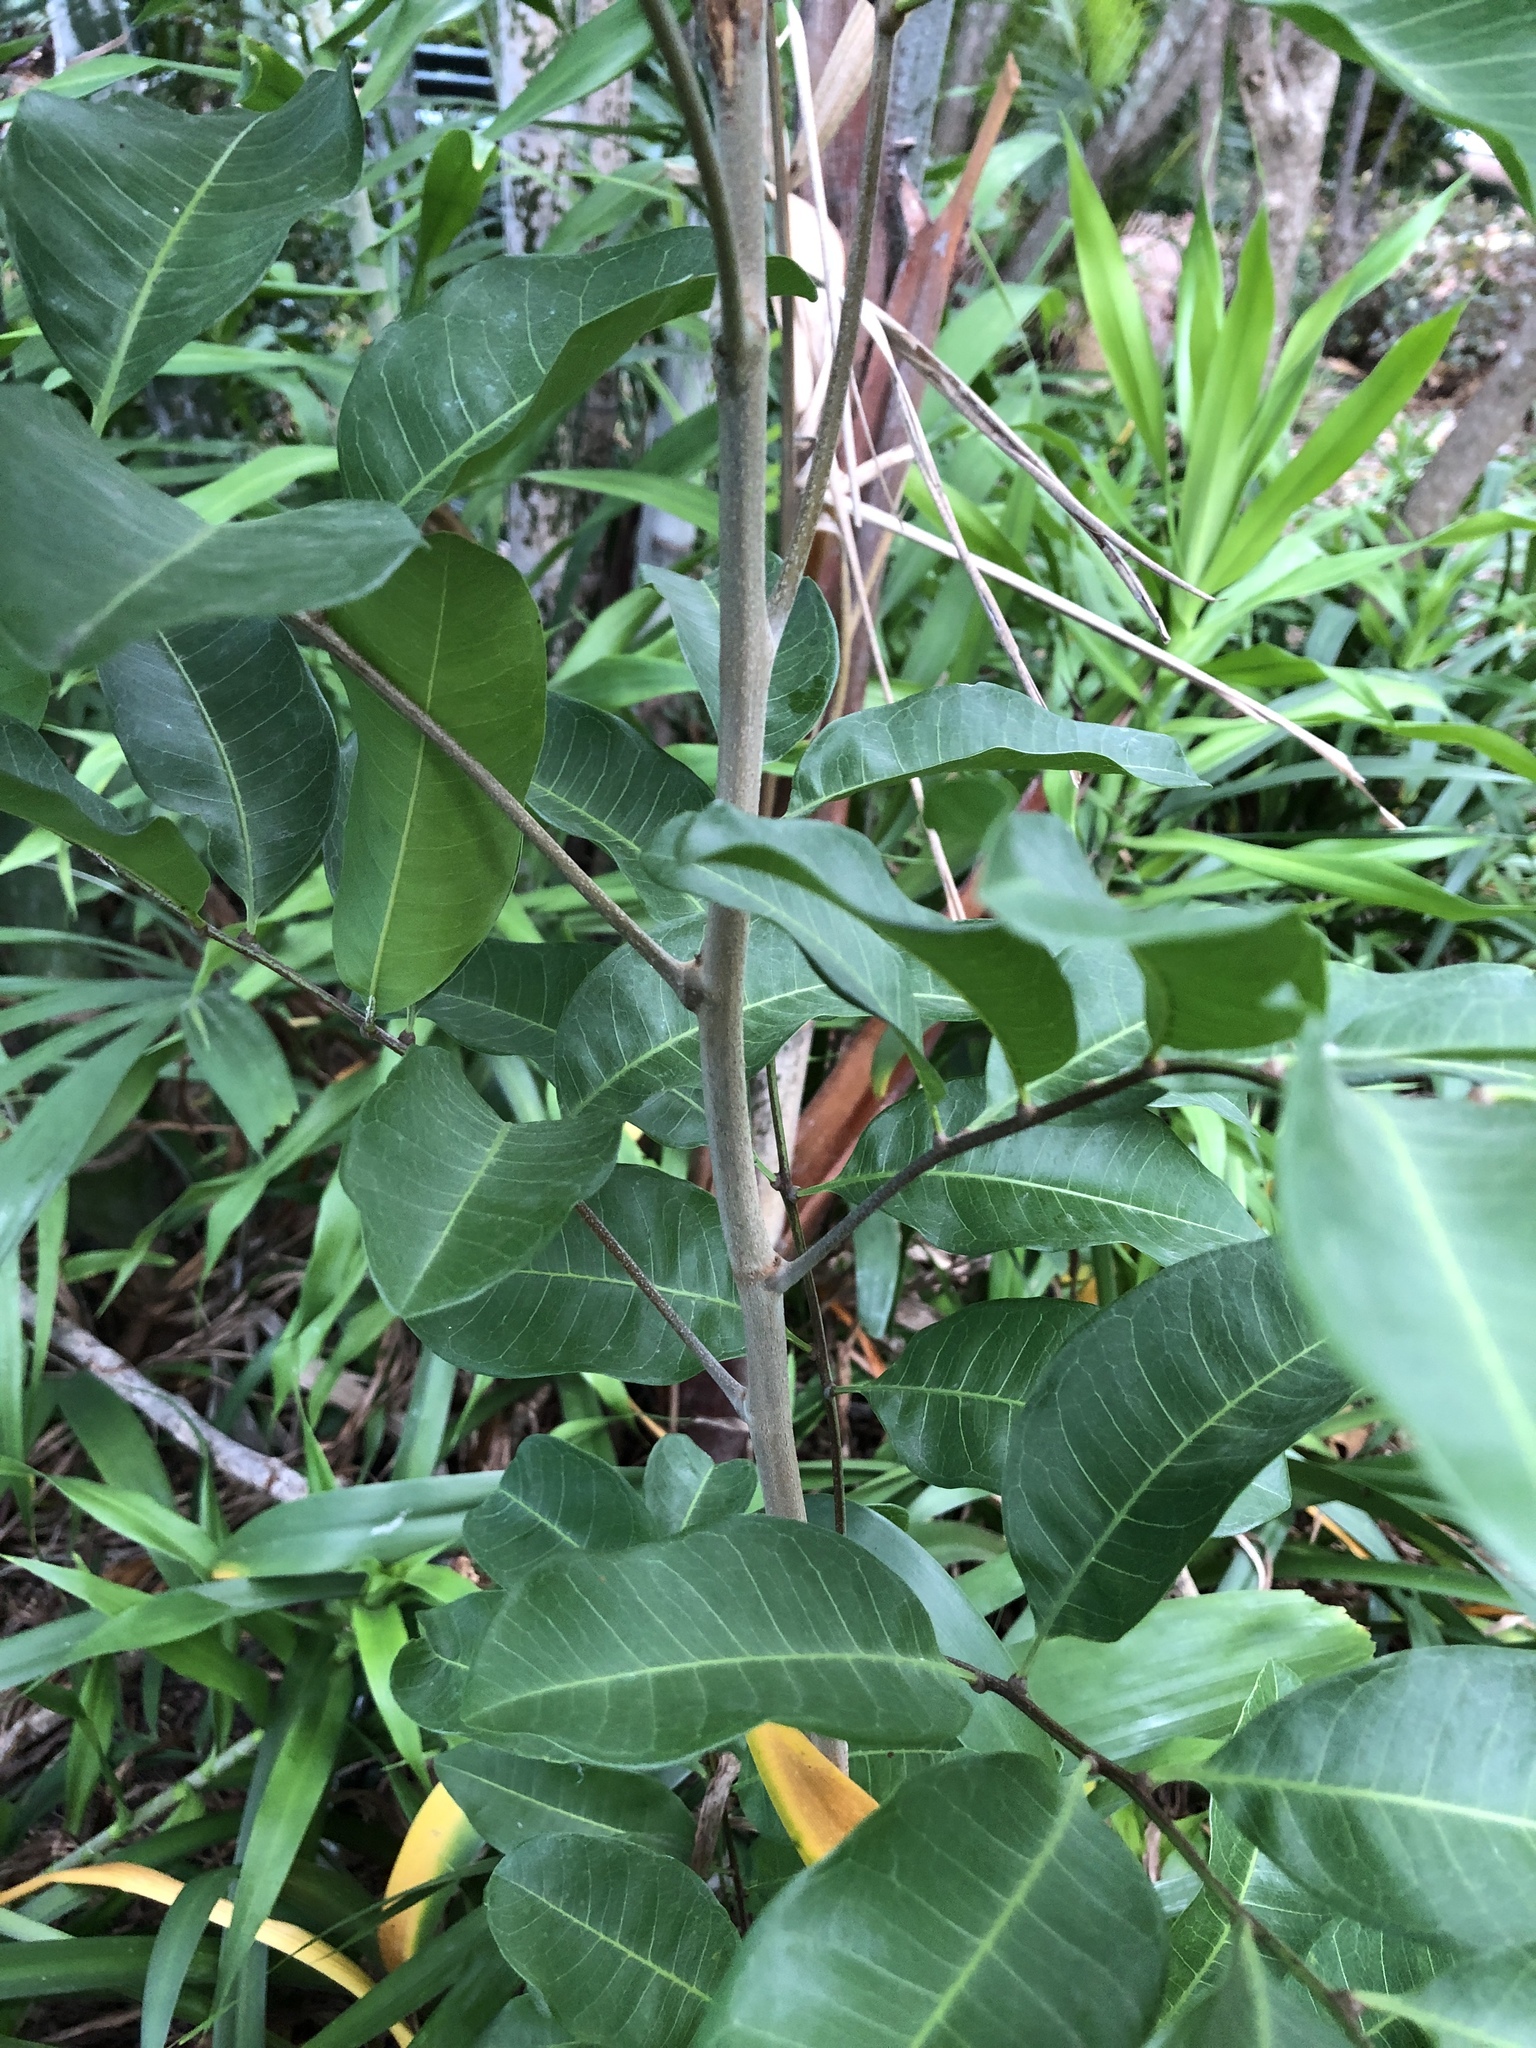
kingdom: Plantae
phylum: Tracheophyta
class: Magnoliopsida
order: Sapindales
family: Sapindaceae
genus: Cupaniopsis
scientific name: Cupaniopsis anacardioides
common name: Carrotwood
